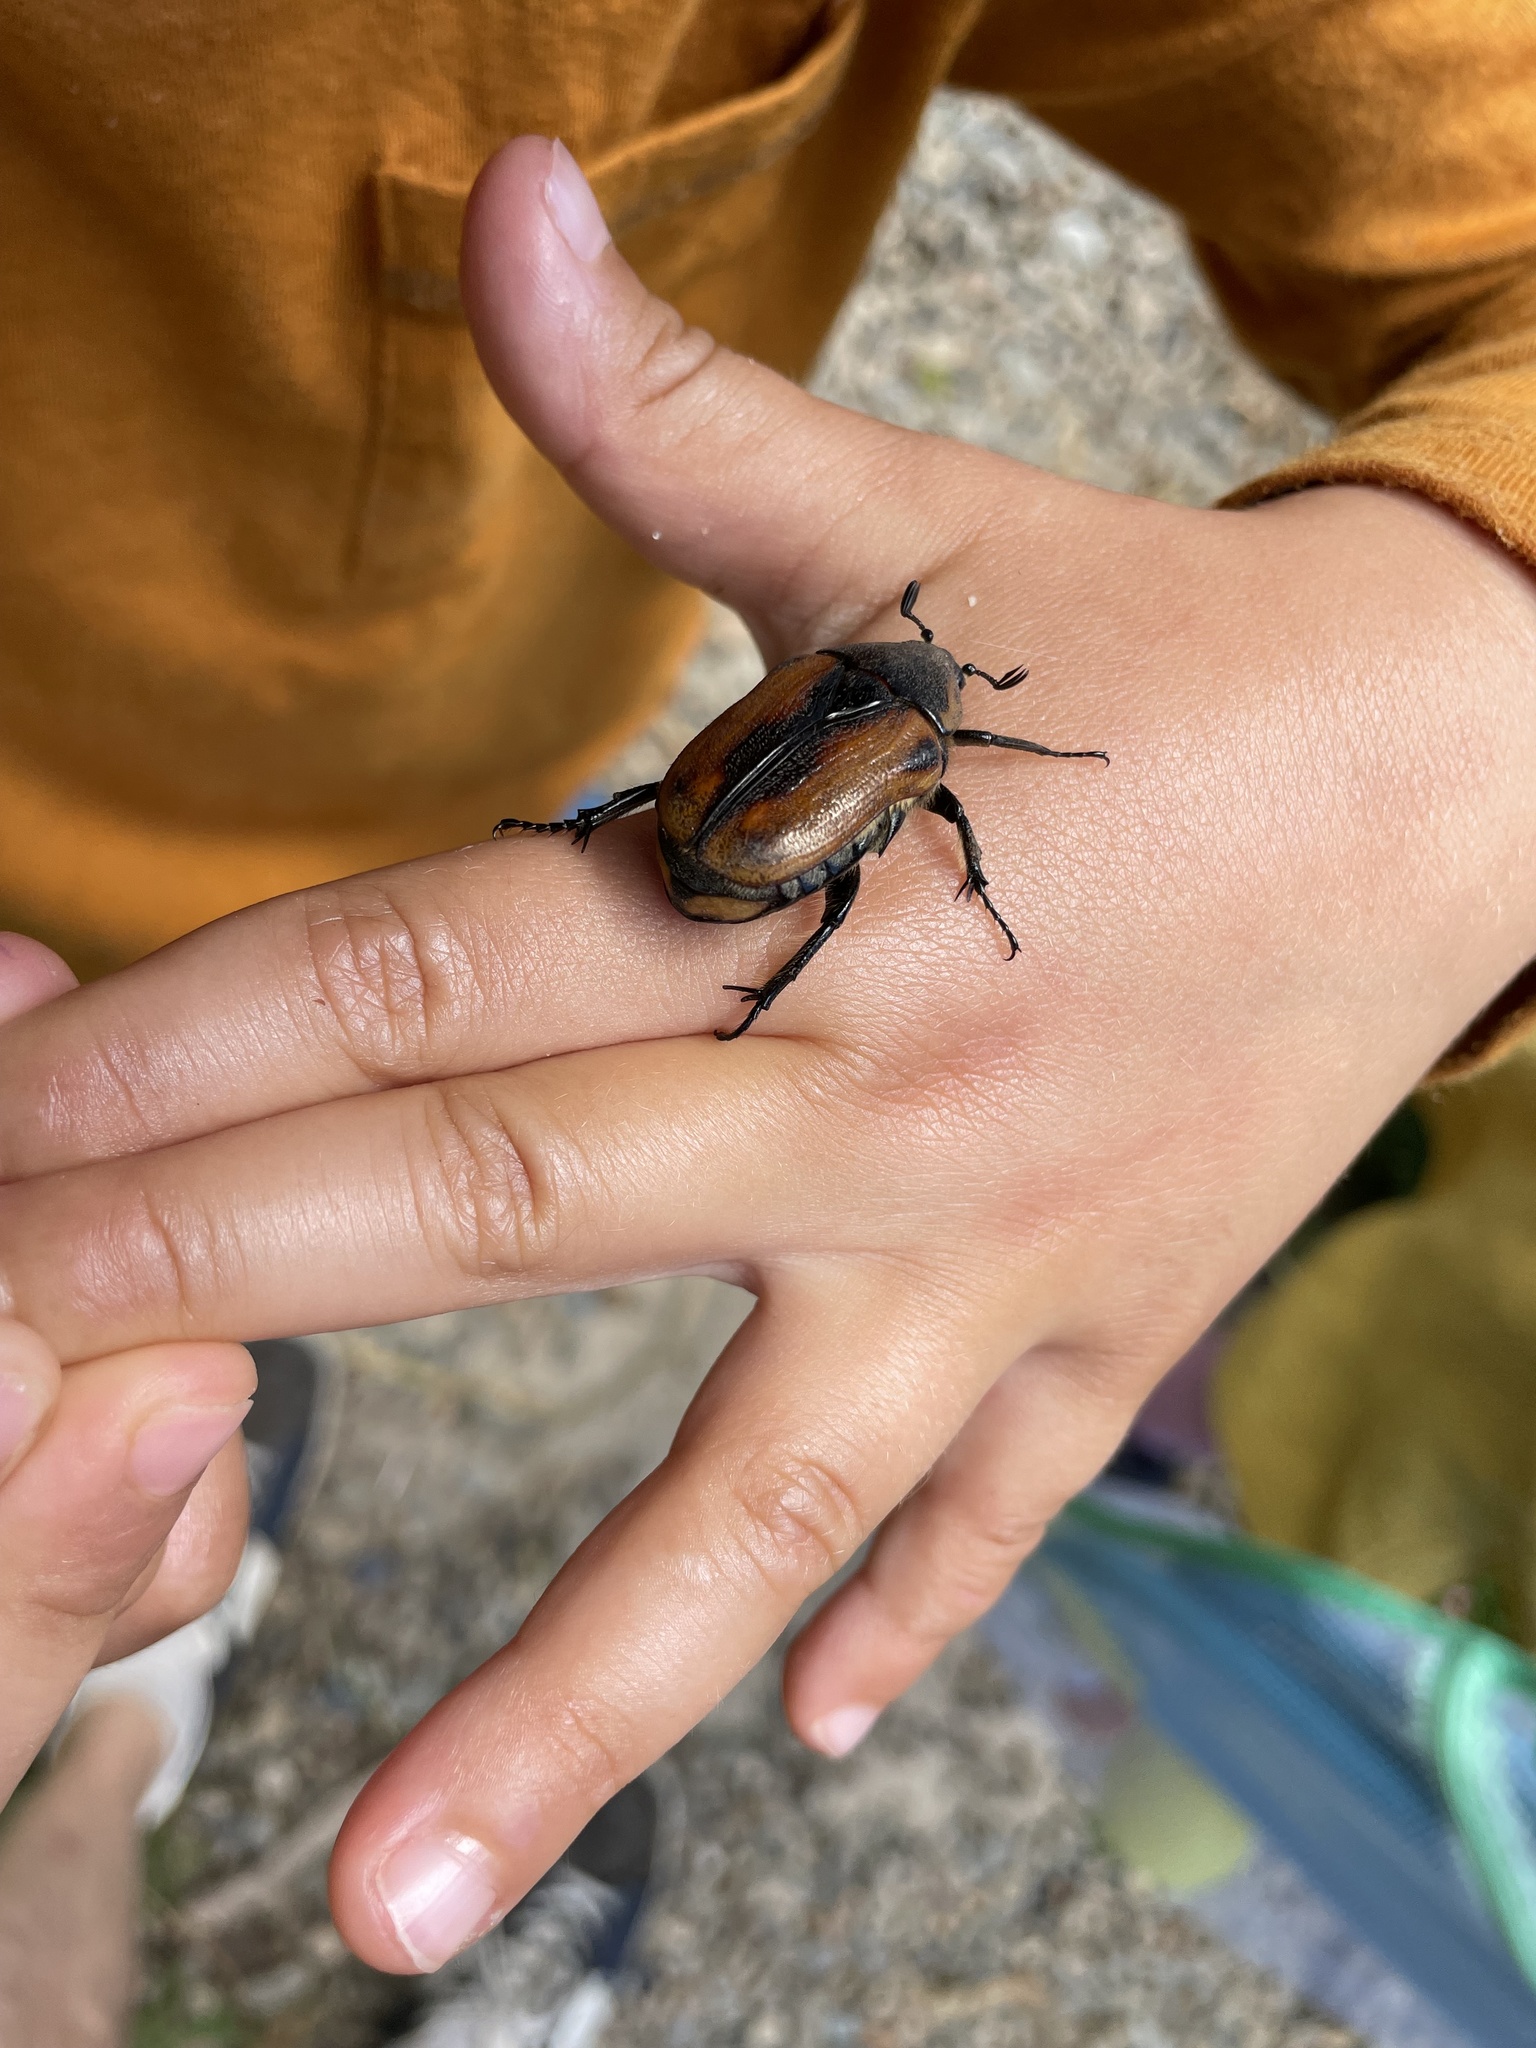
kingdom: Animalia
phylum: Arthropoda
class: Insecta
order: Coleoptera
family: Scarabaeidae
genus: Chondropyga
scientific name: Chondropyga dorsalis
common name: Cowboy beetle
